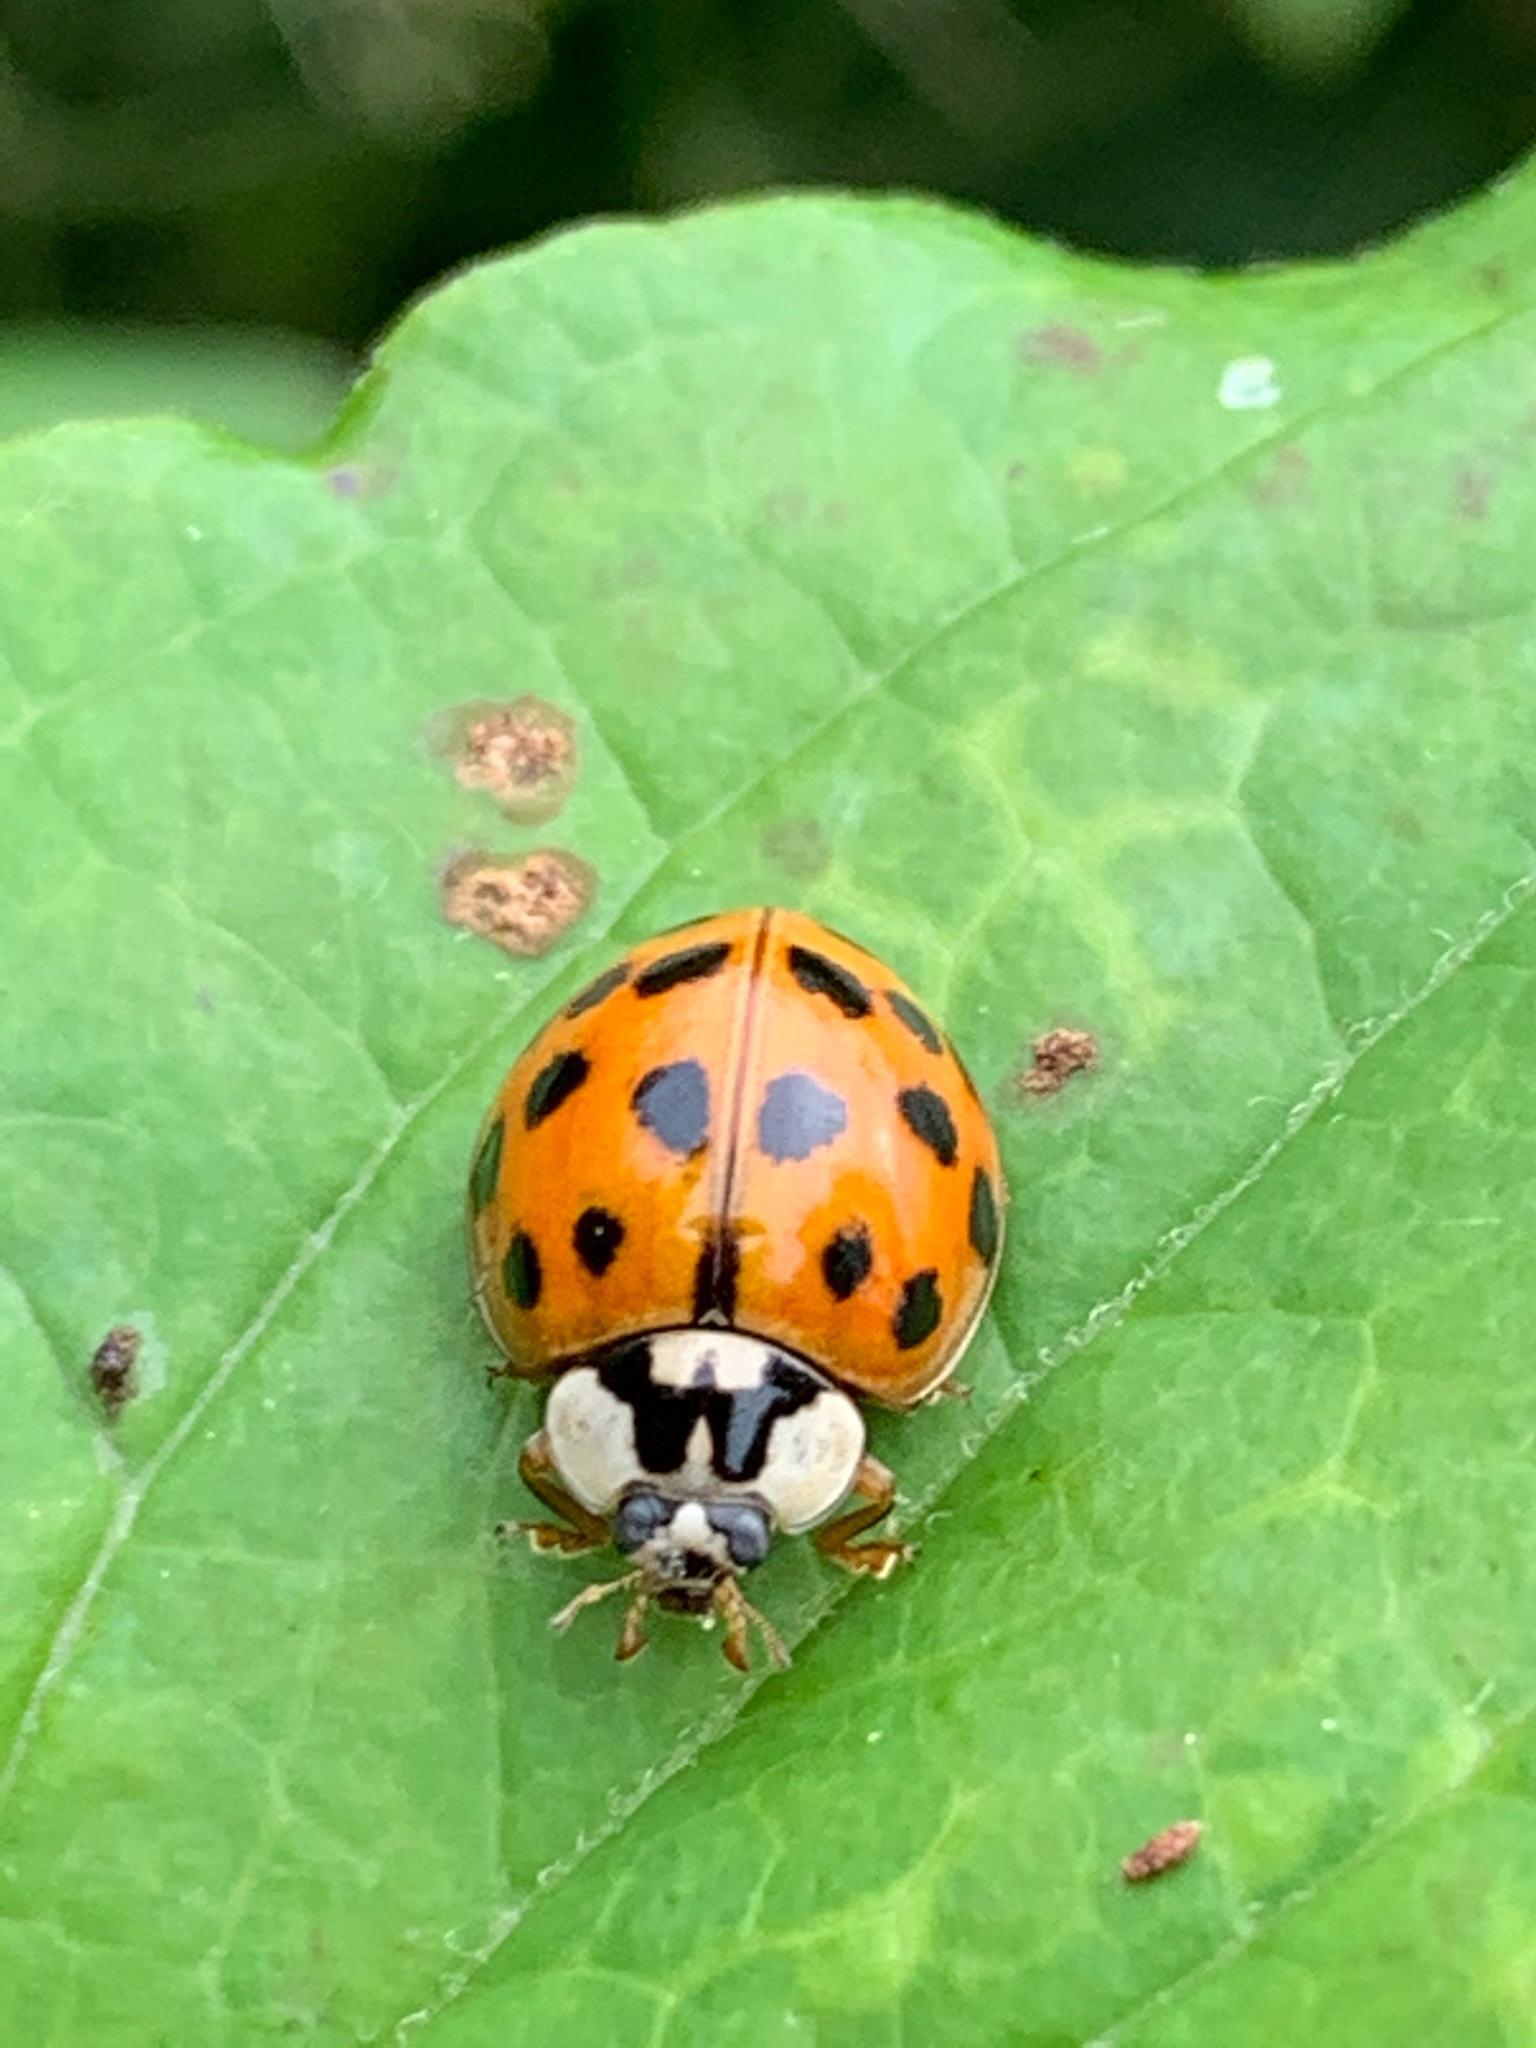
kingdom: Animalia
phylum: Arthropoda
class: Insecta
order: Coleoptera
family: Coccinellidae
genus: Harmonia
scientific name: Harmonia axyridis
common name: Harlequin ladybird
